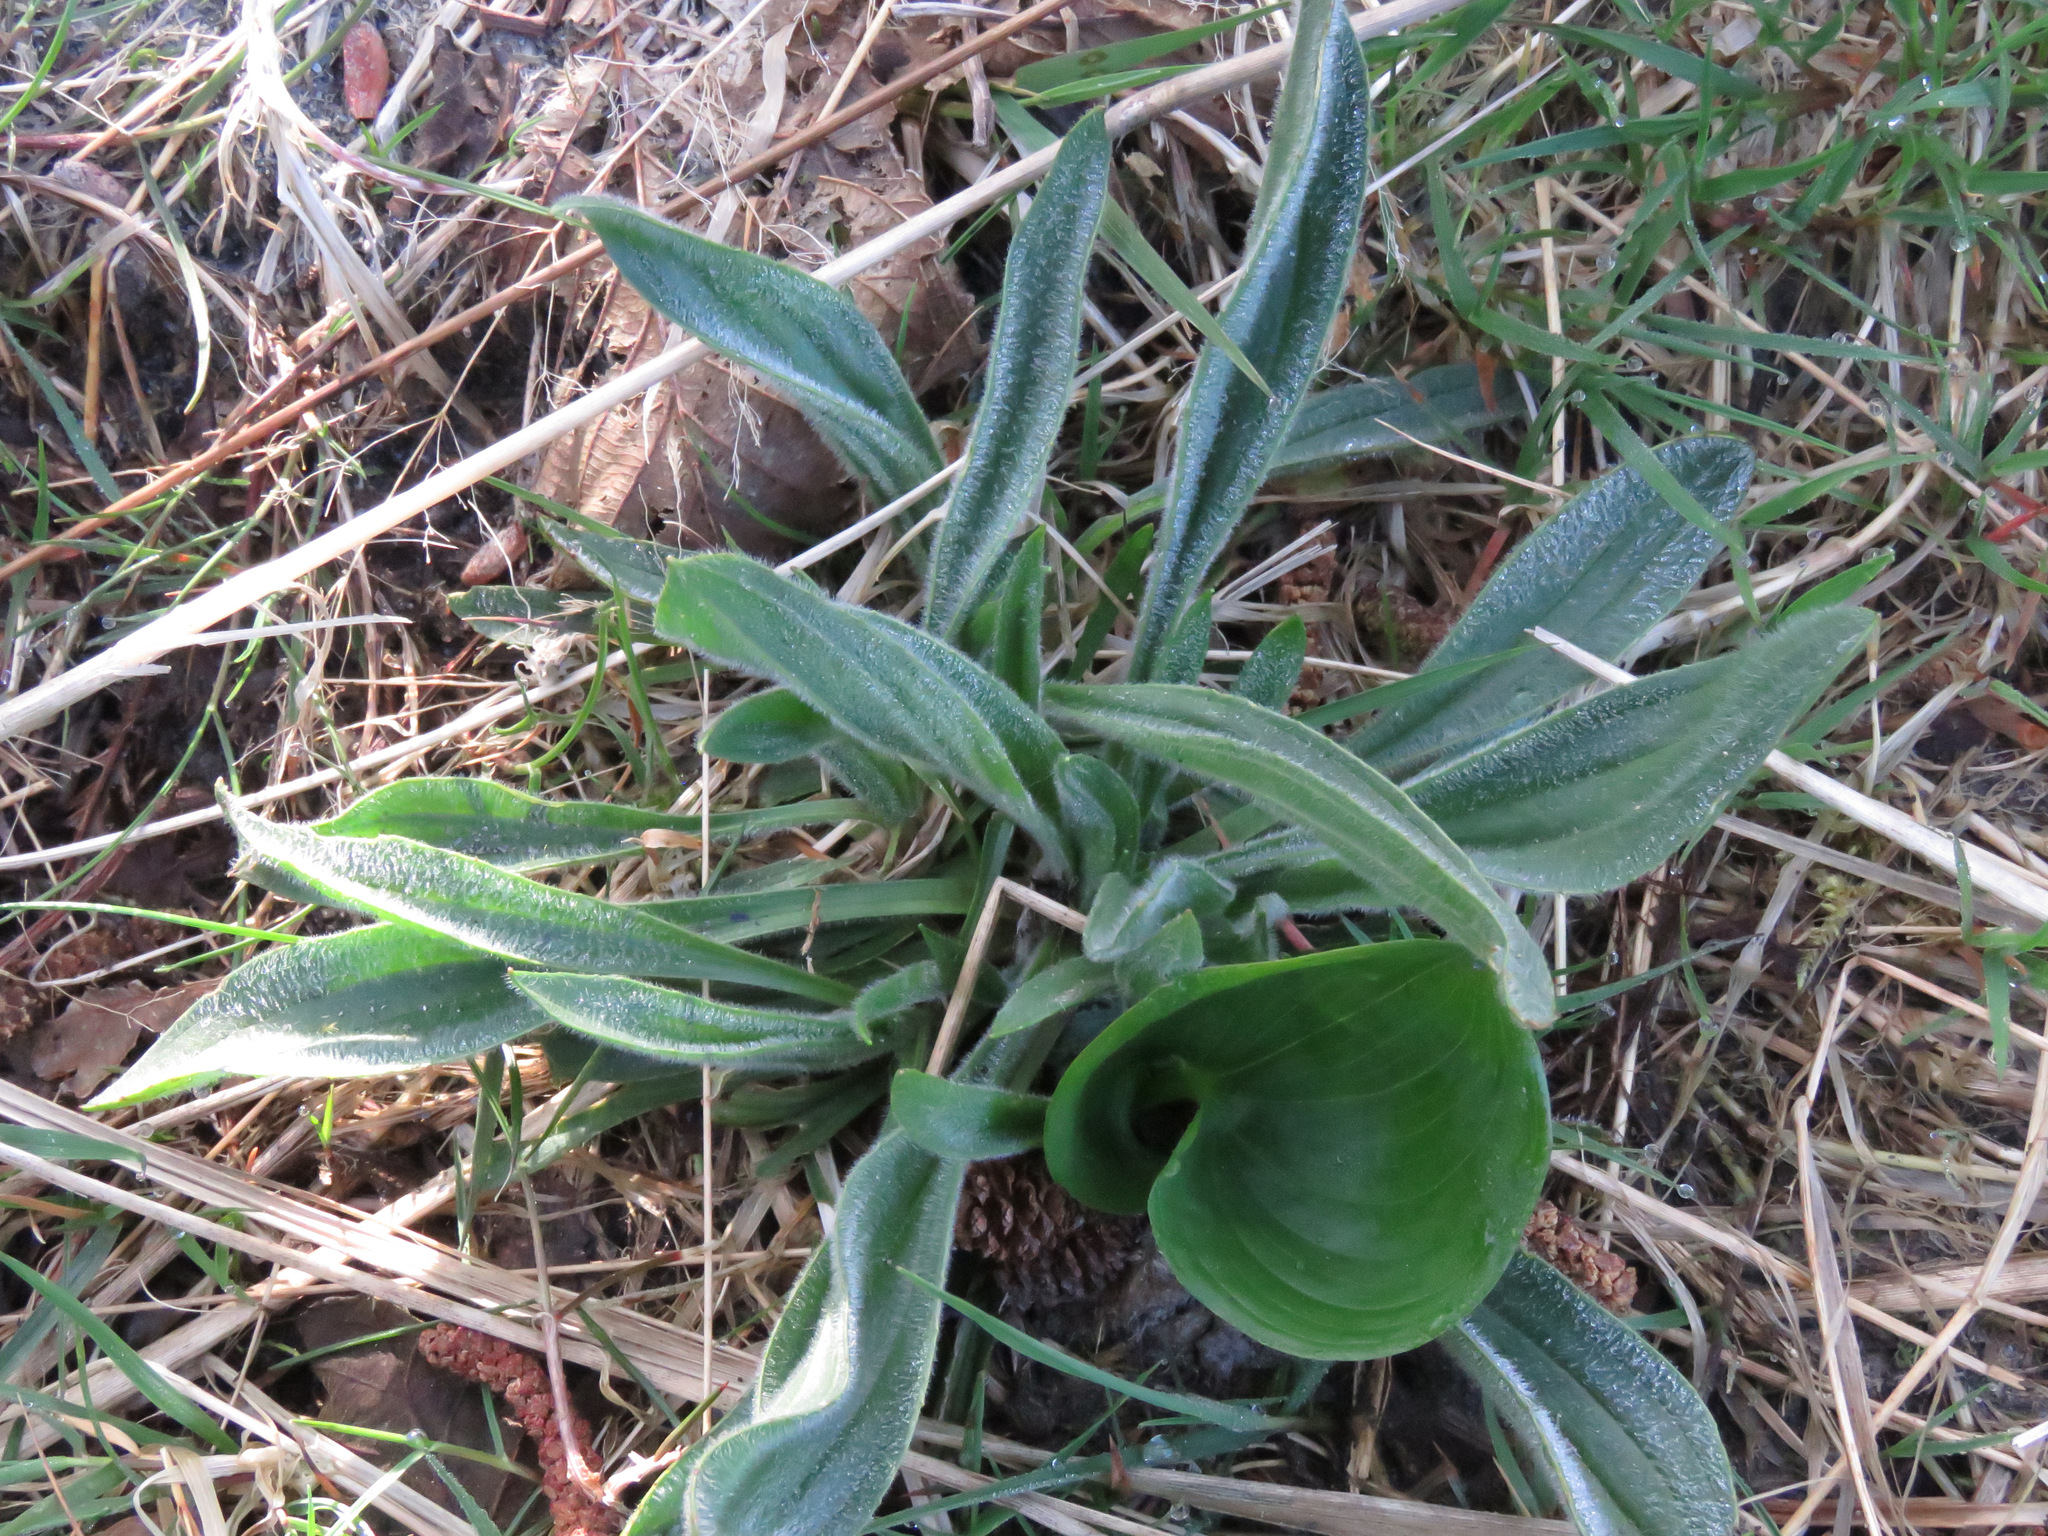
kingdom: Plantae
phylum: Tracheophyta
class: Magnoliopsida
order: Lamiales
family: Plantaginaceae
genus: Plantago
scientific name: Plantago lanceolata
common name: Ribwort plantain
